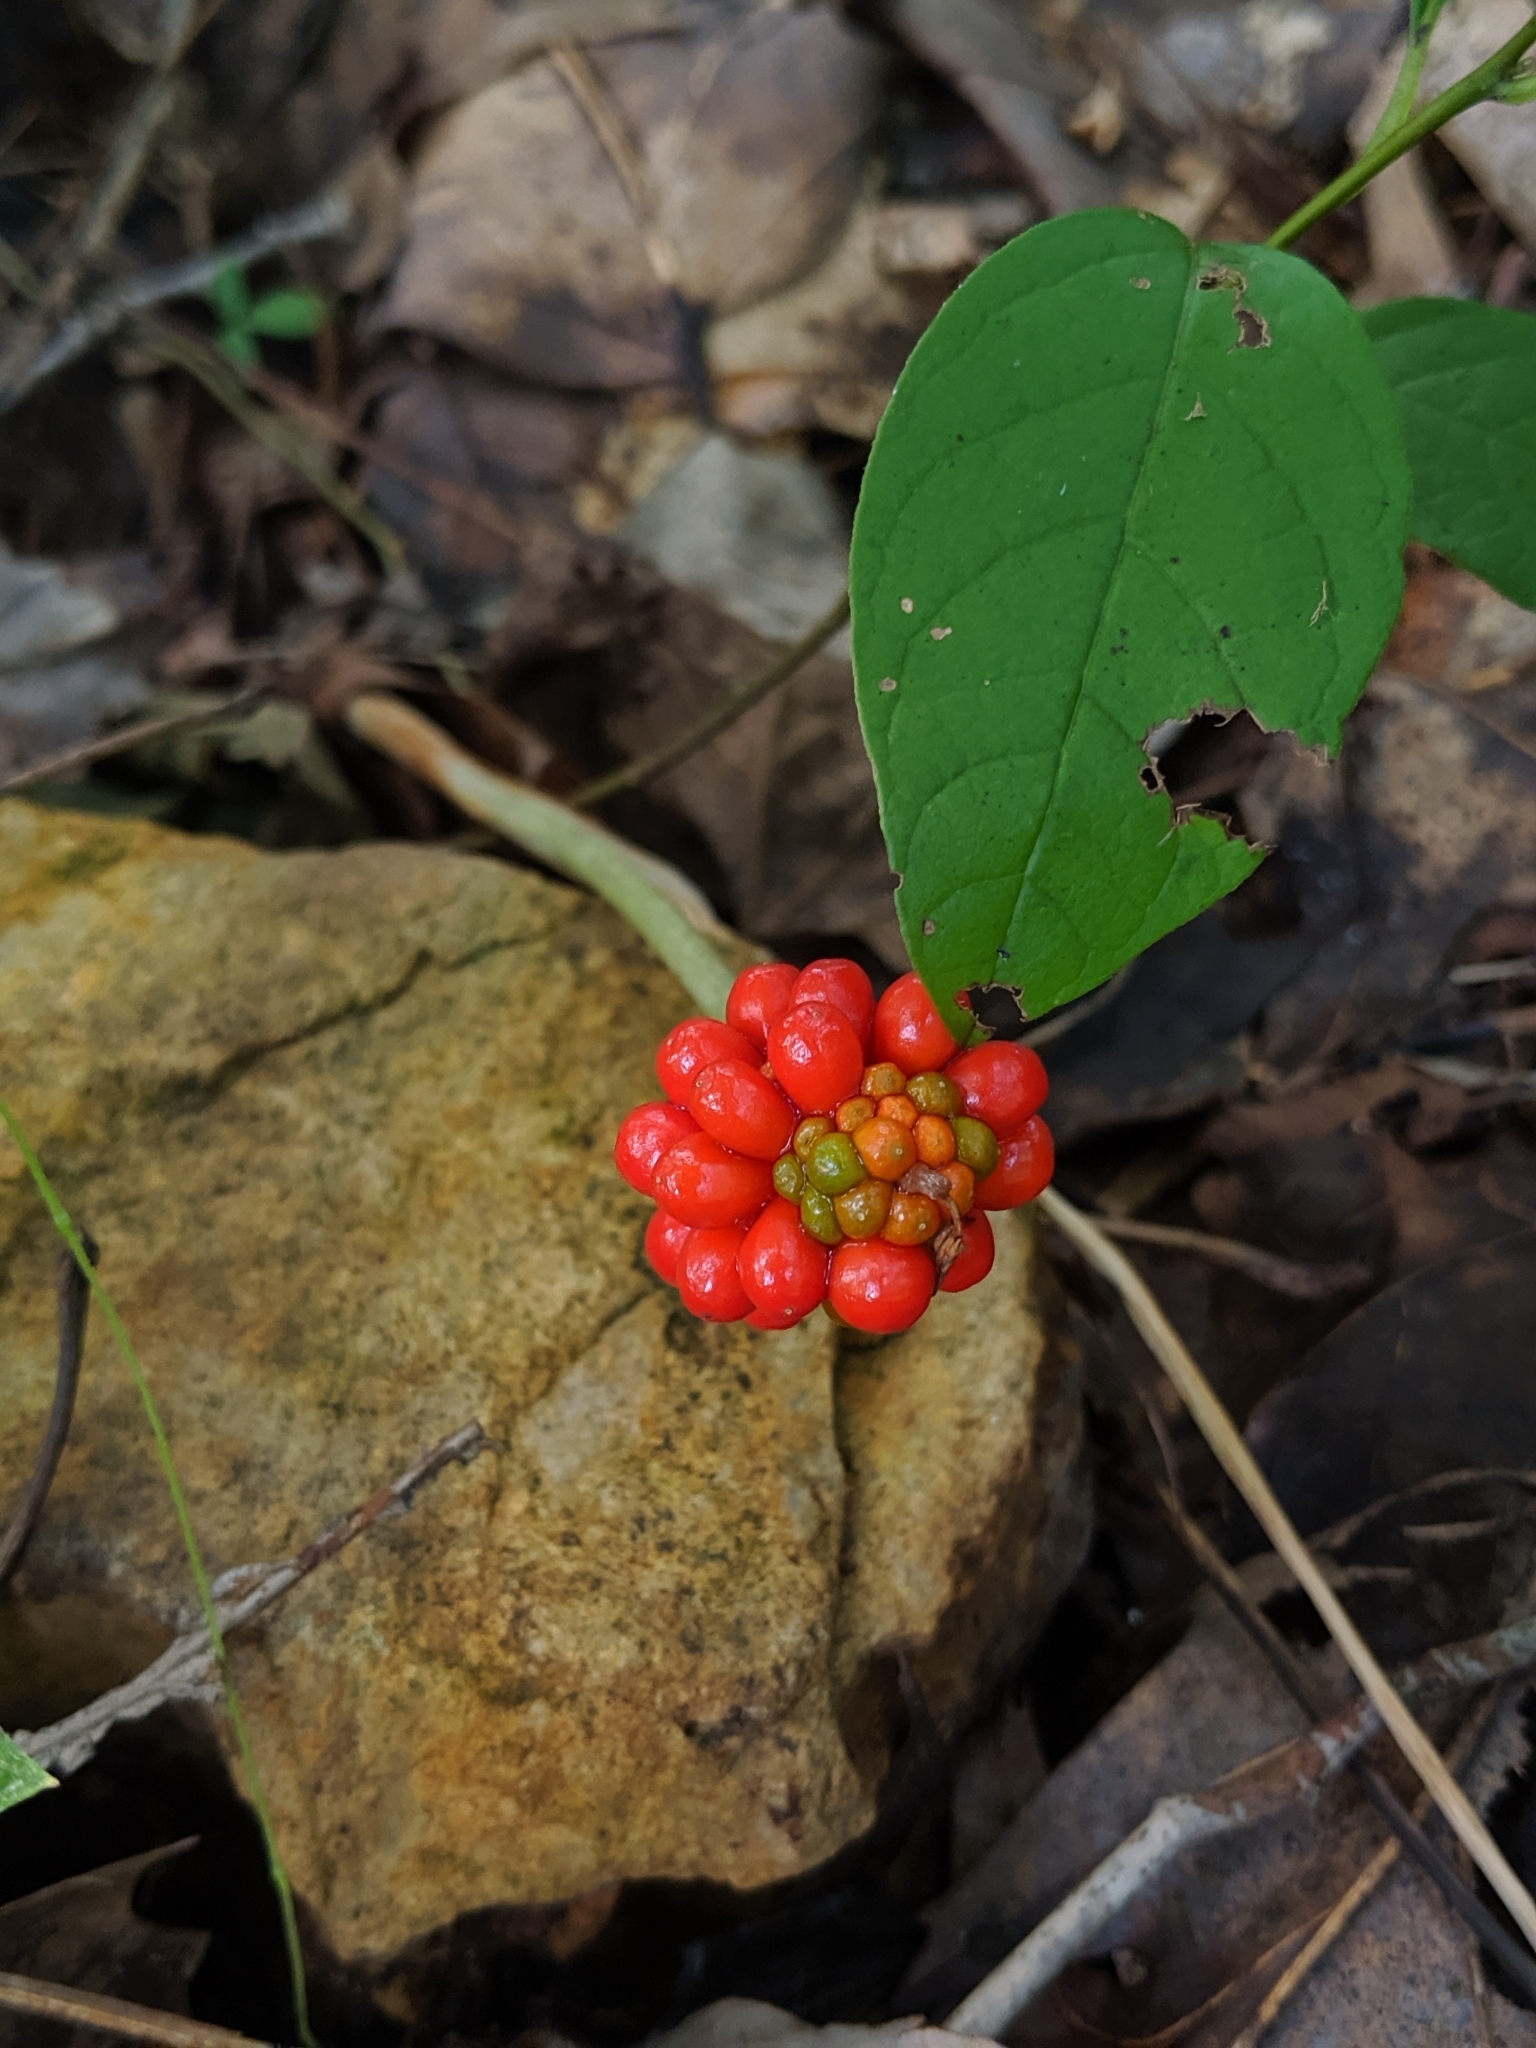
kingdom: Plantae
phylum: Tracheophyta
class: Liliopsida
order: Alismatales
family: Araceae
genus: Arisaema
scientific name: Arisaema triphyllum
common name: Jack-in-the-pulpit
